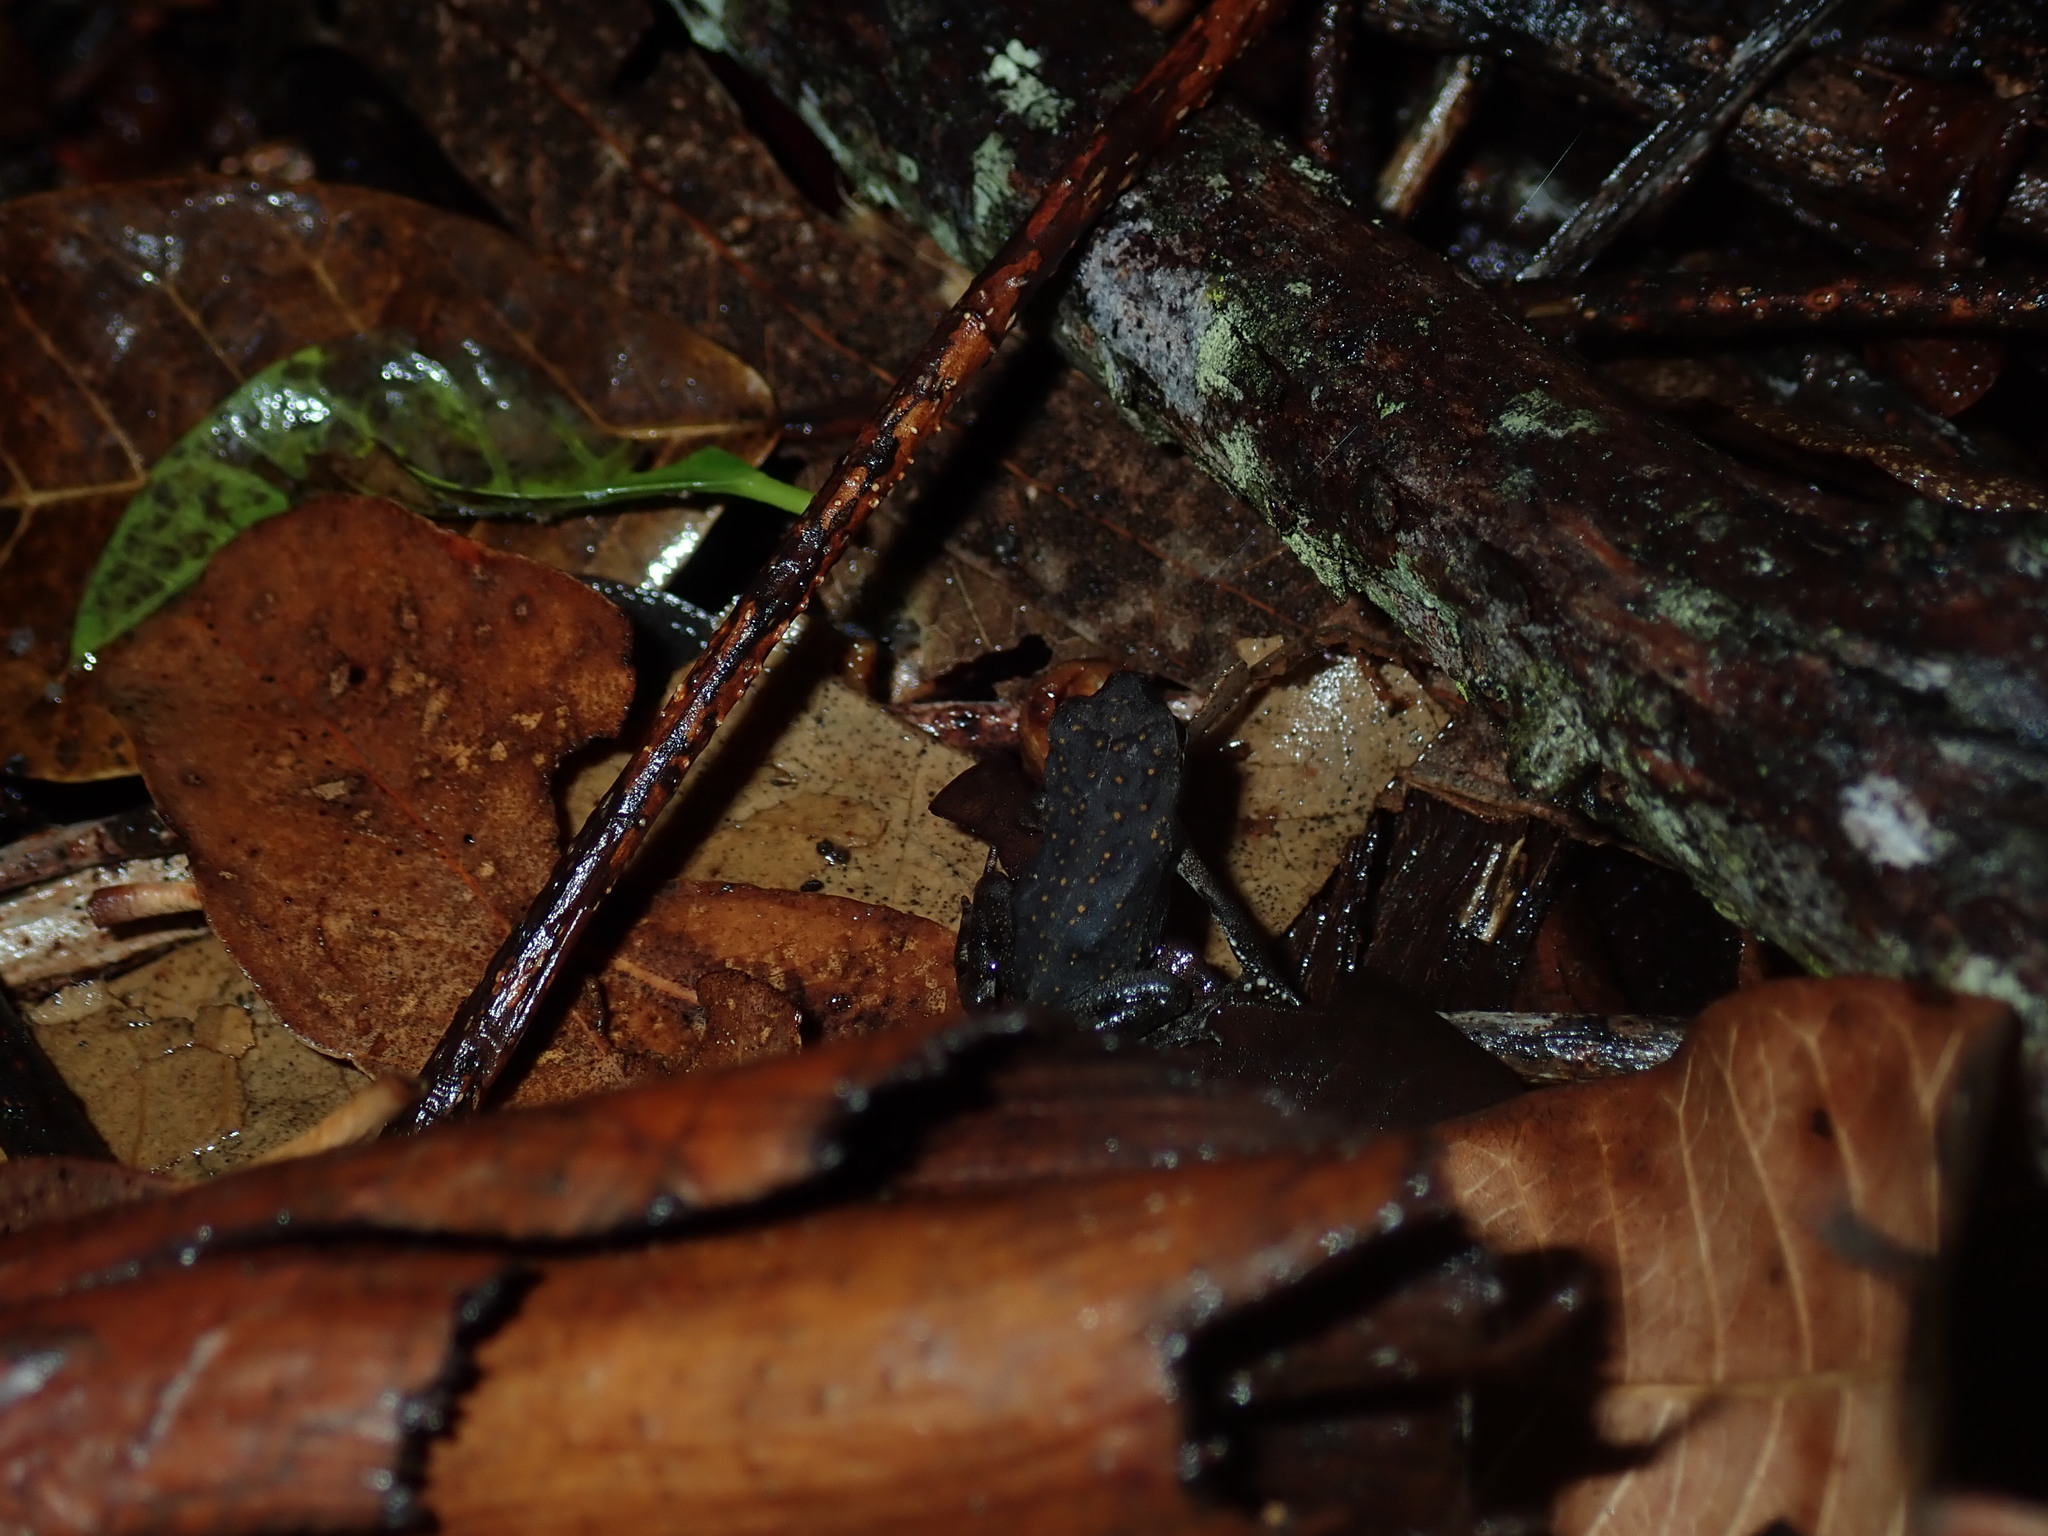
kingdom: Animalia
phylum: Chordata
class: Amphibia
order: Anura
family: Bufonidae
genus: Rhinella
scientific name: Rhinella marina
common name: Cane toad
